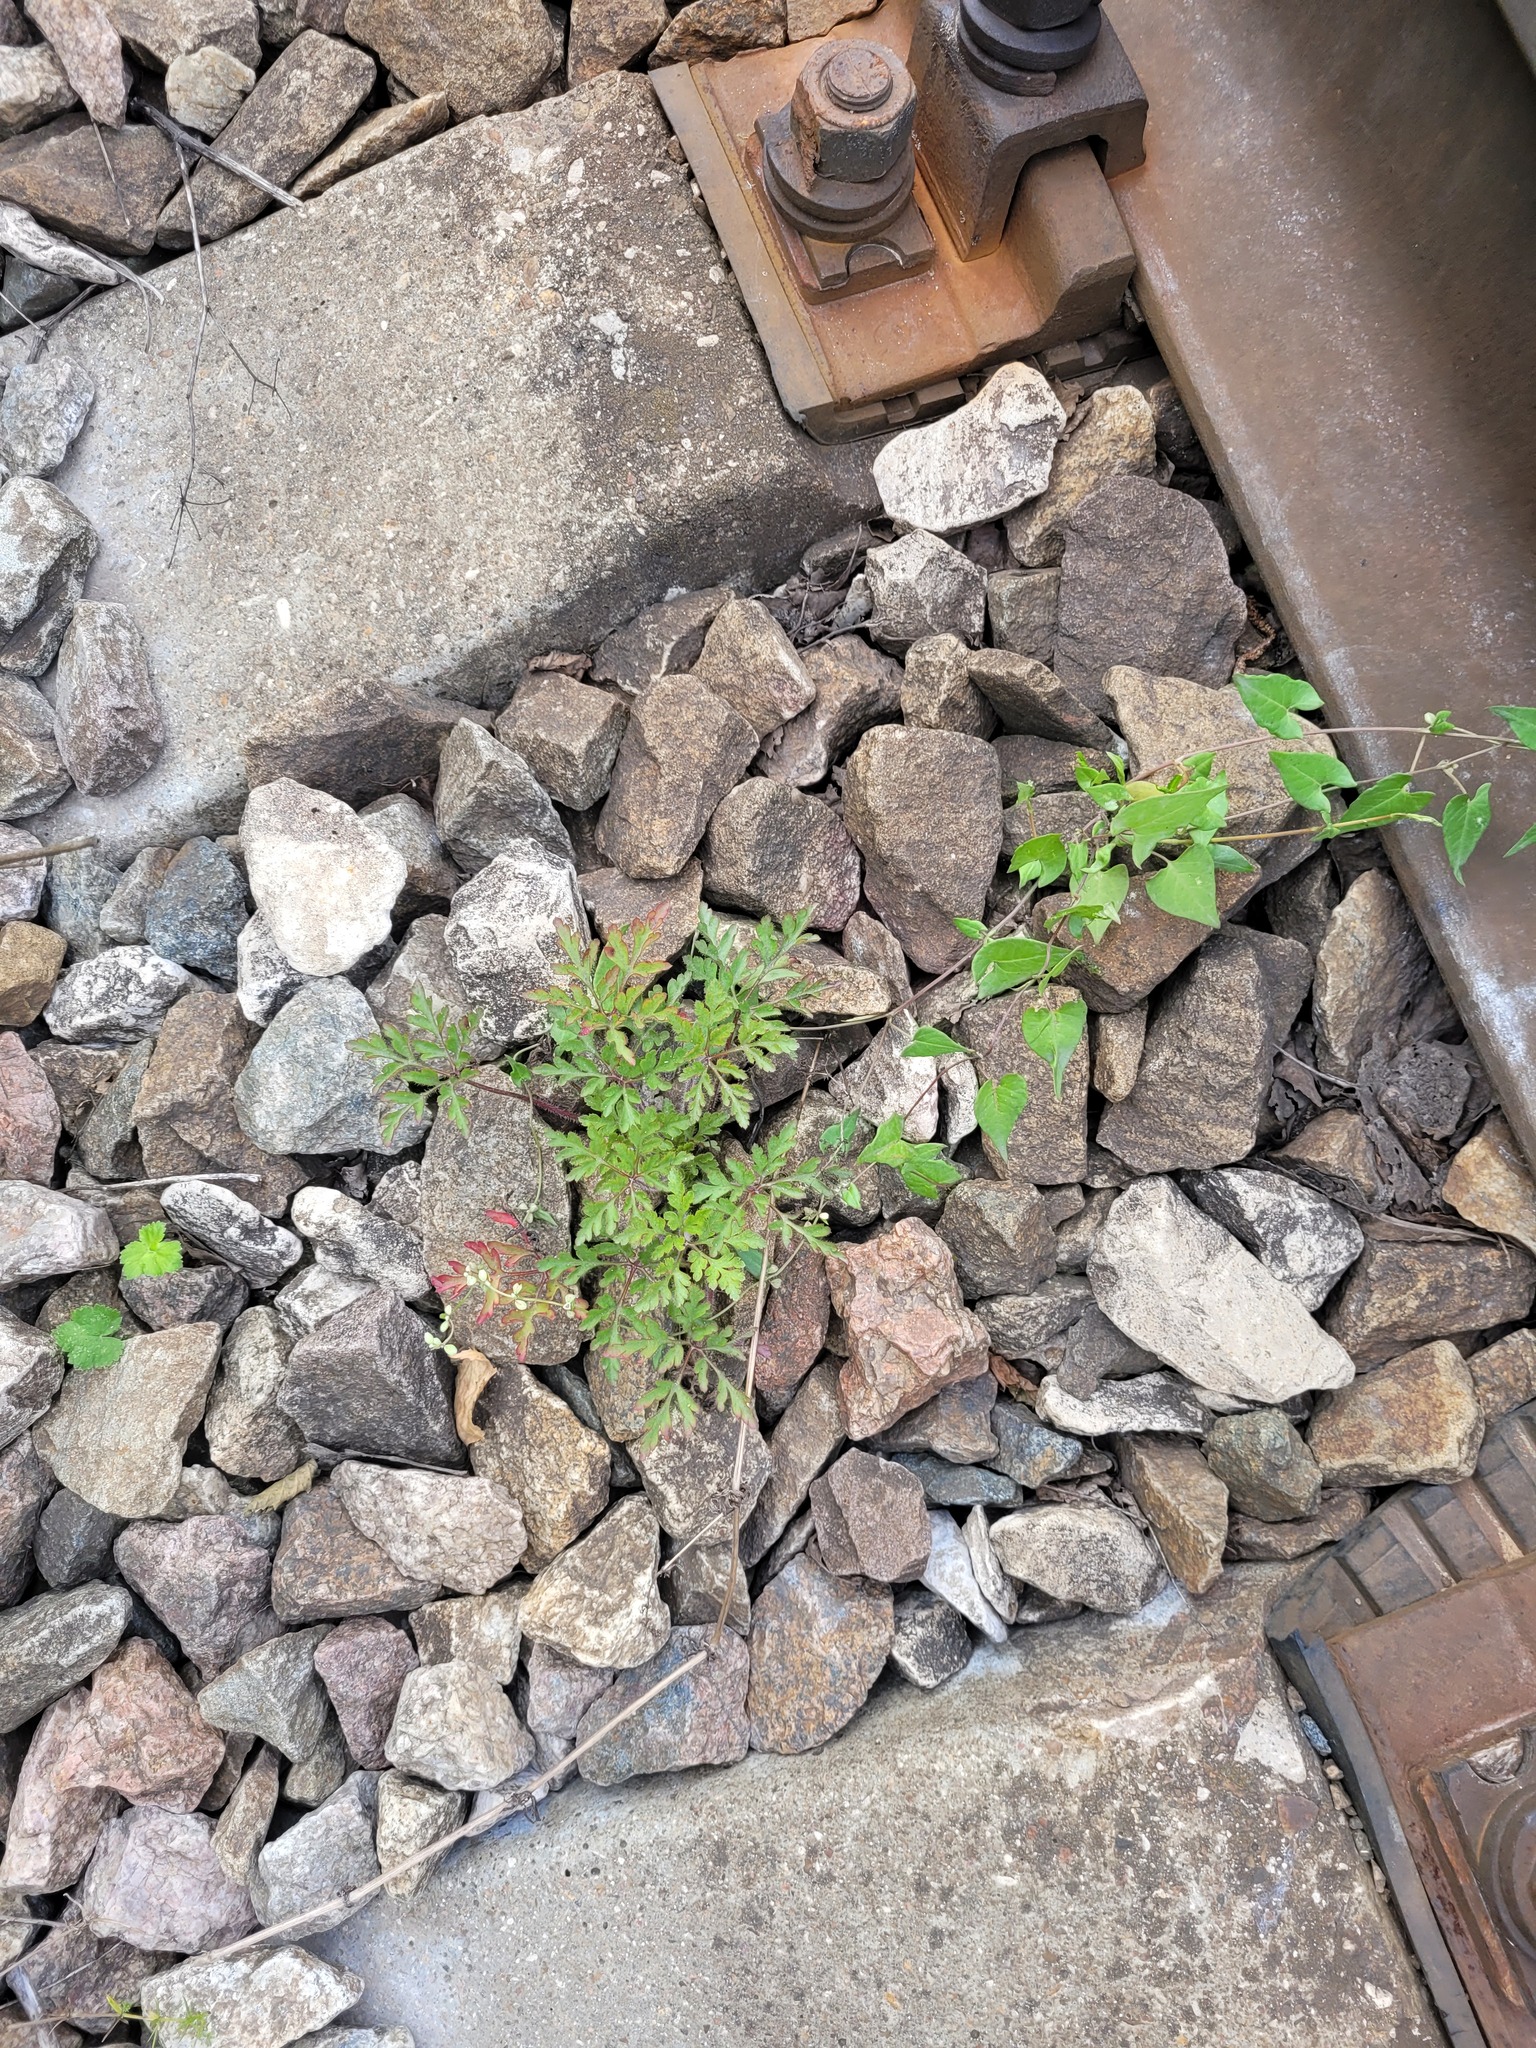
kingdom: Plantae
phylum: Tracheophyta
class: Magnoliopsida
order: Geraniales
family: Geraniaceae
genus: Geranium
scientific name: Geranium robertianum
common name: Herb-robert
